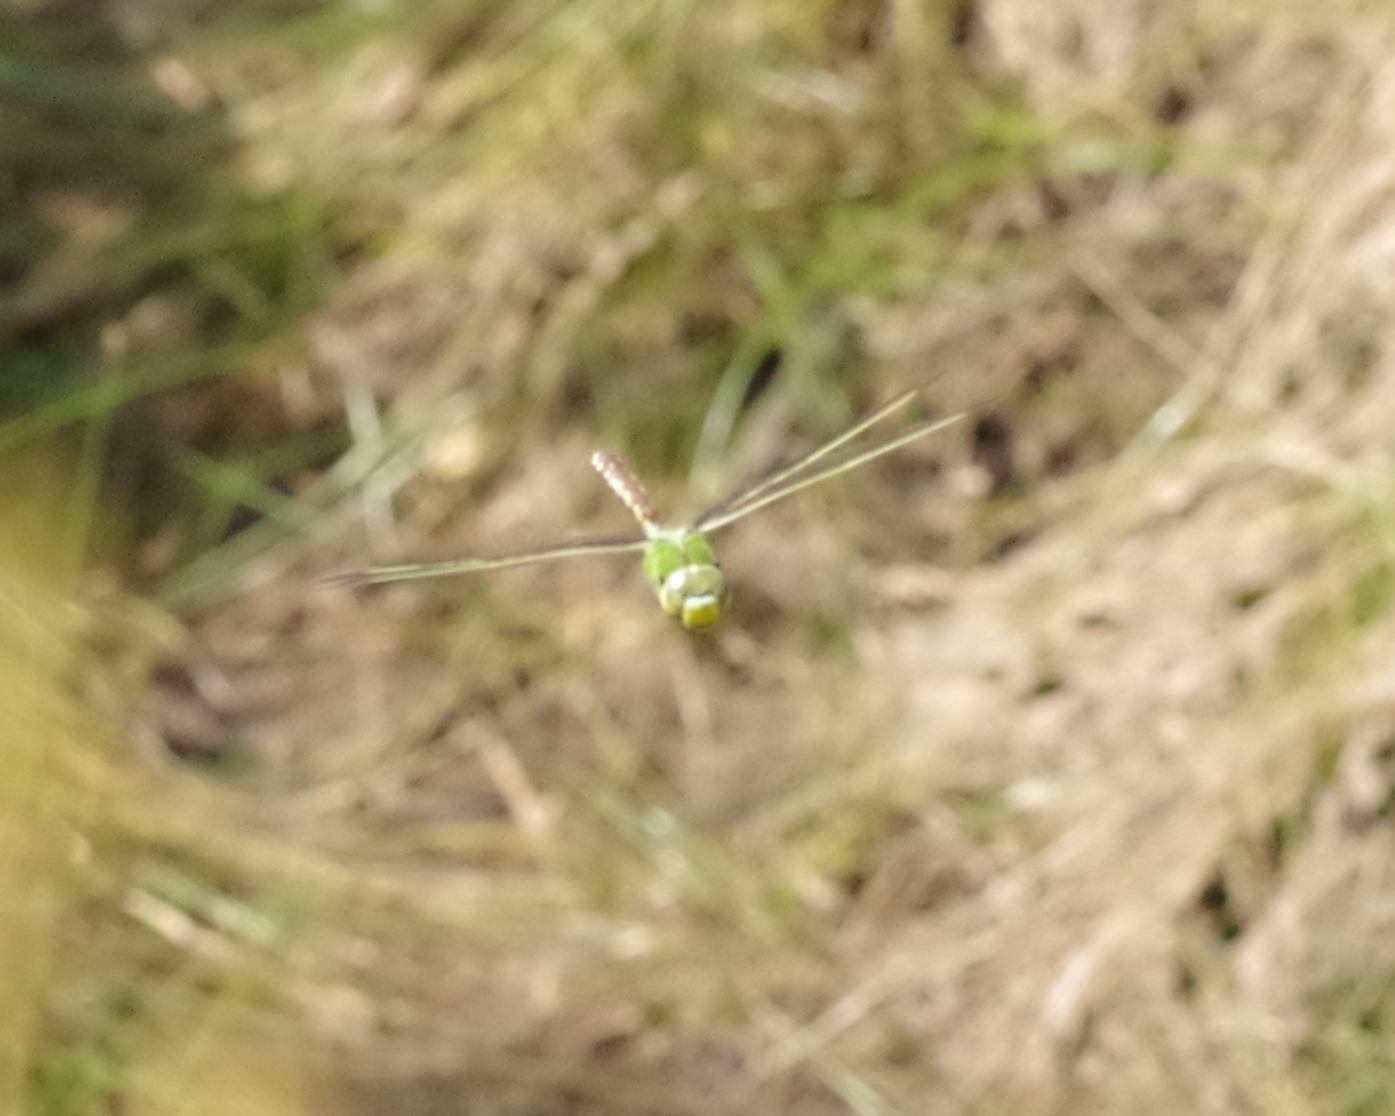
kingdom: Animalia
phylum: Arthropoda
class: Insecta
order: Odonata
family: Aeshnidae
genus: Anax
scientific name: Anax imperator
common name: Emperor dragonfly
